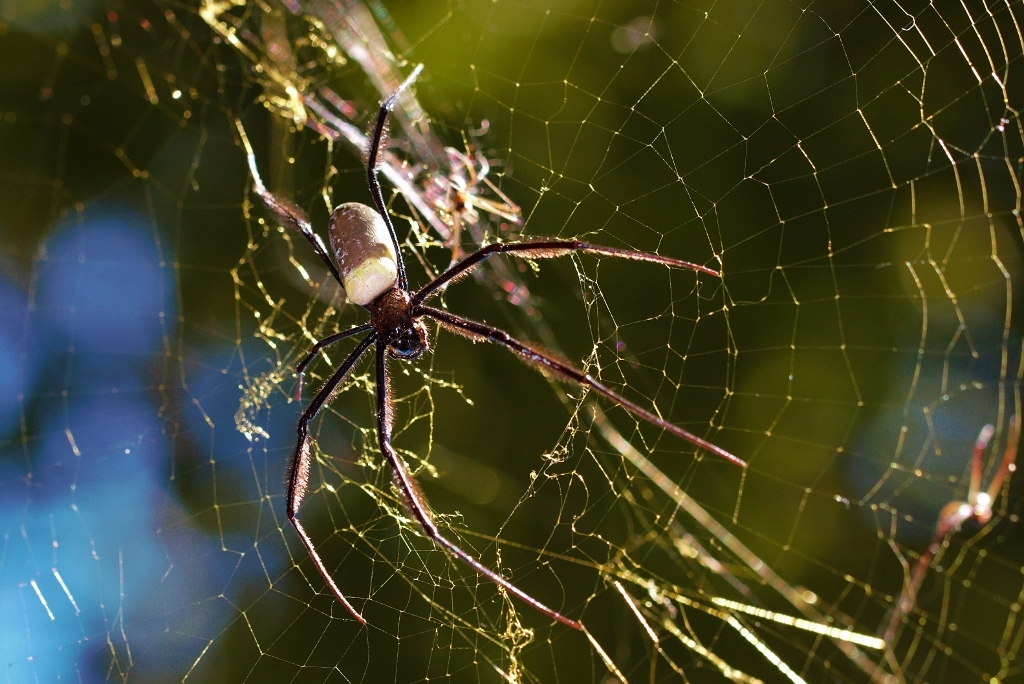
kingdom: Animalia
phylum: Arthropoda
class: Arachnida
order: Araneae
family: Araneidae
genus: Trichonephila
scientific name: Trichonephila fenestrata
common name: Hairy golden orb weaver
